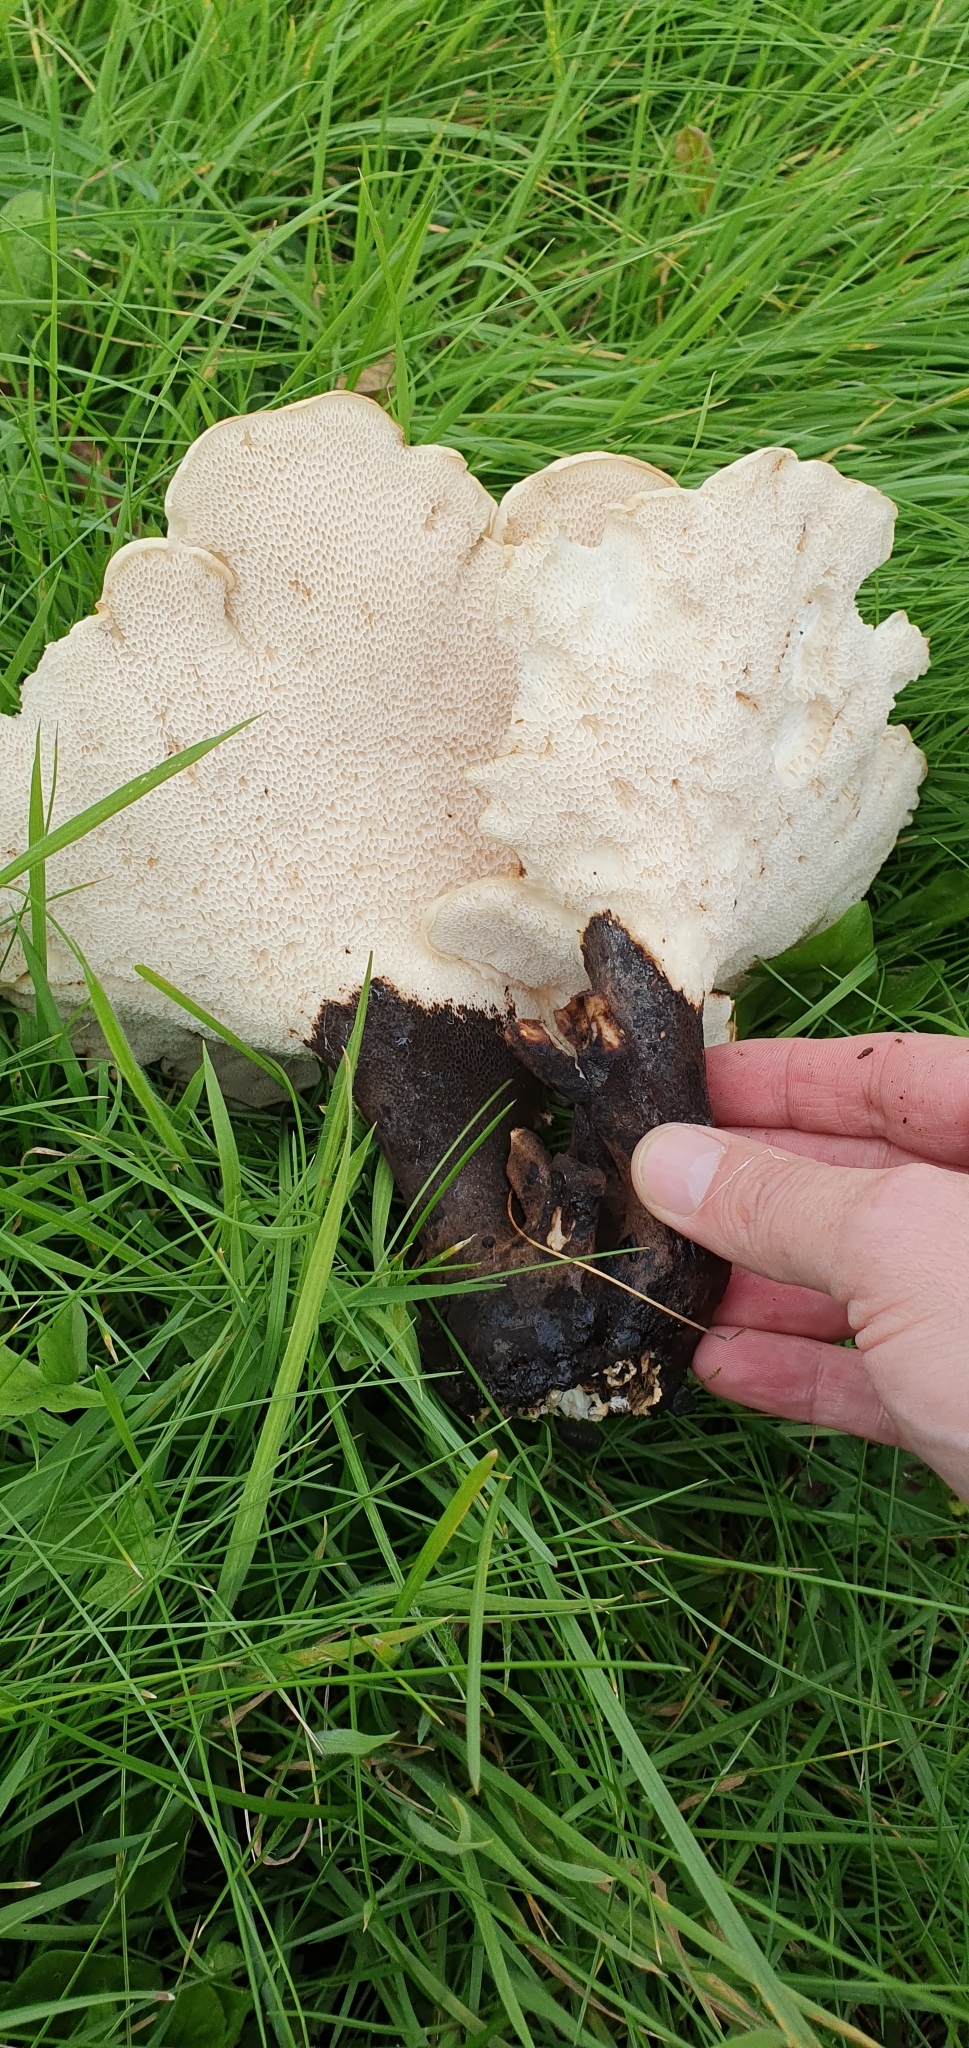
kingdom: Fungi
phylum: Basidiomycota
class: Agaricomycetes
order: Polyporales
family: Polyporaceae
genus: Cerioporus
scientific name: Cerioporus squamosus
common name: Dryad's saddle
